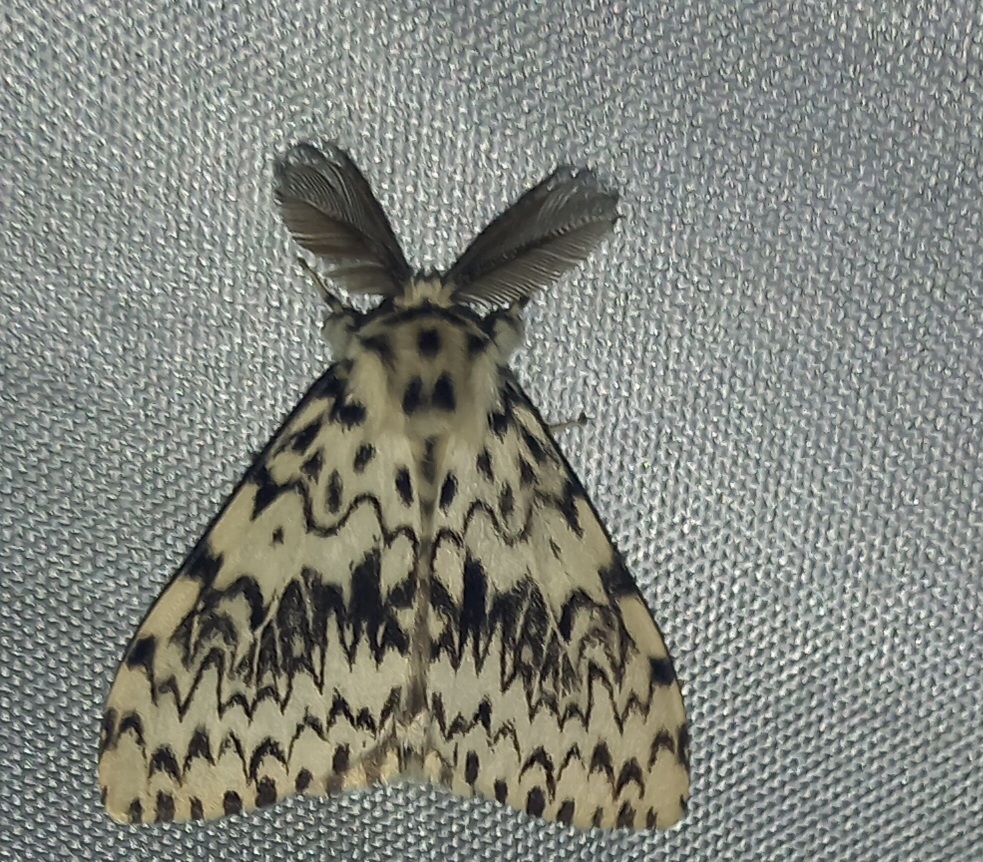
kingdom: Animalia
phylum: Arthropoda
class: Insecta
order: Lepidoptera
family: Erebidae
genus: Lymantria
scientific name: Lymantria monacha
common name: Black arches
